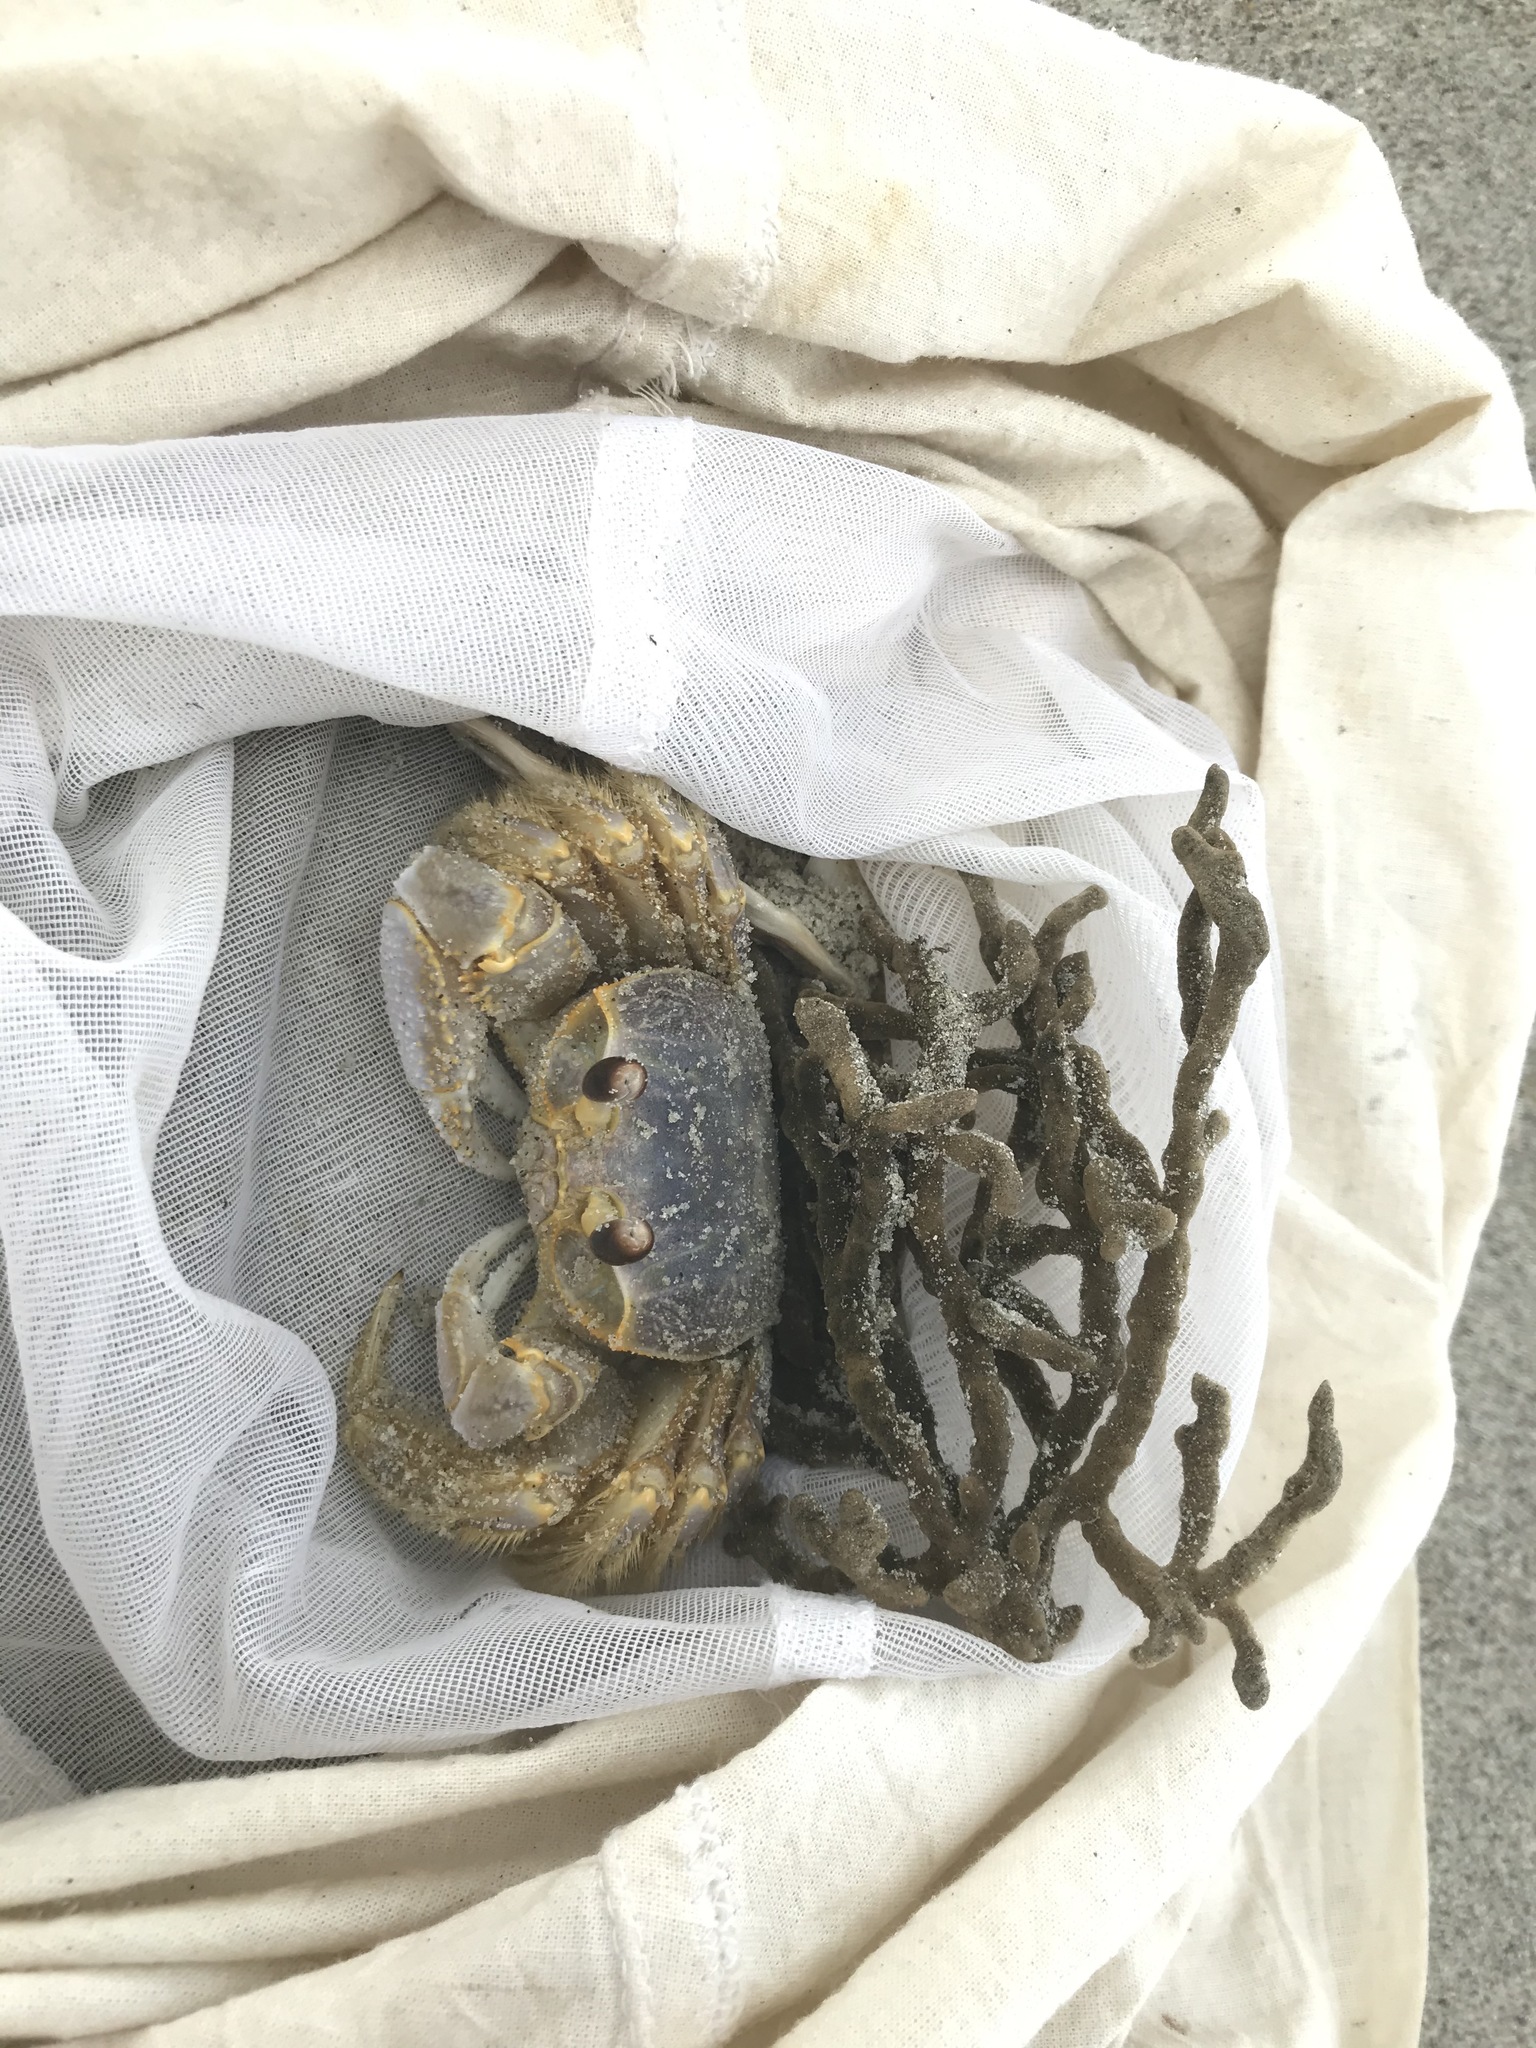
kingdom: Animalia
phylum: Arthropoda
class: Malacostraca
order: Decapoda
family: Ocypodidae
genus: Ocypode
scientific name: Ocypode quadrata
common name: Ghost crab
